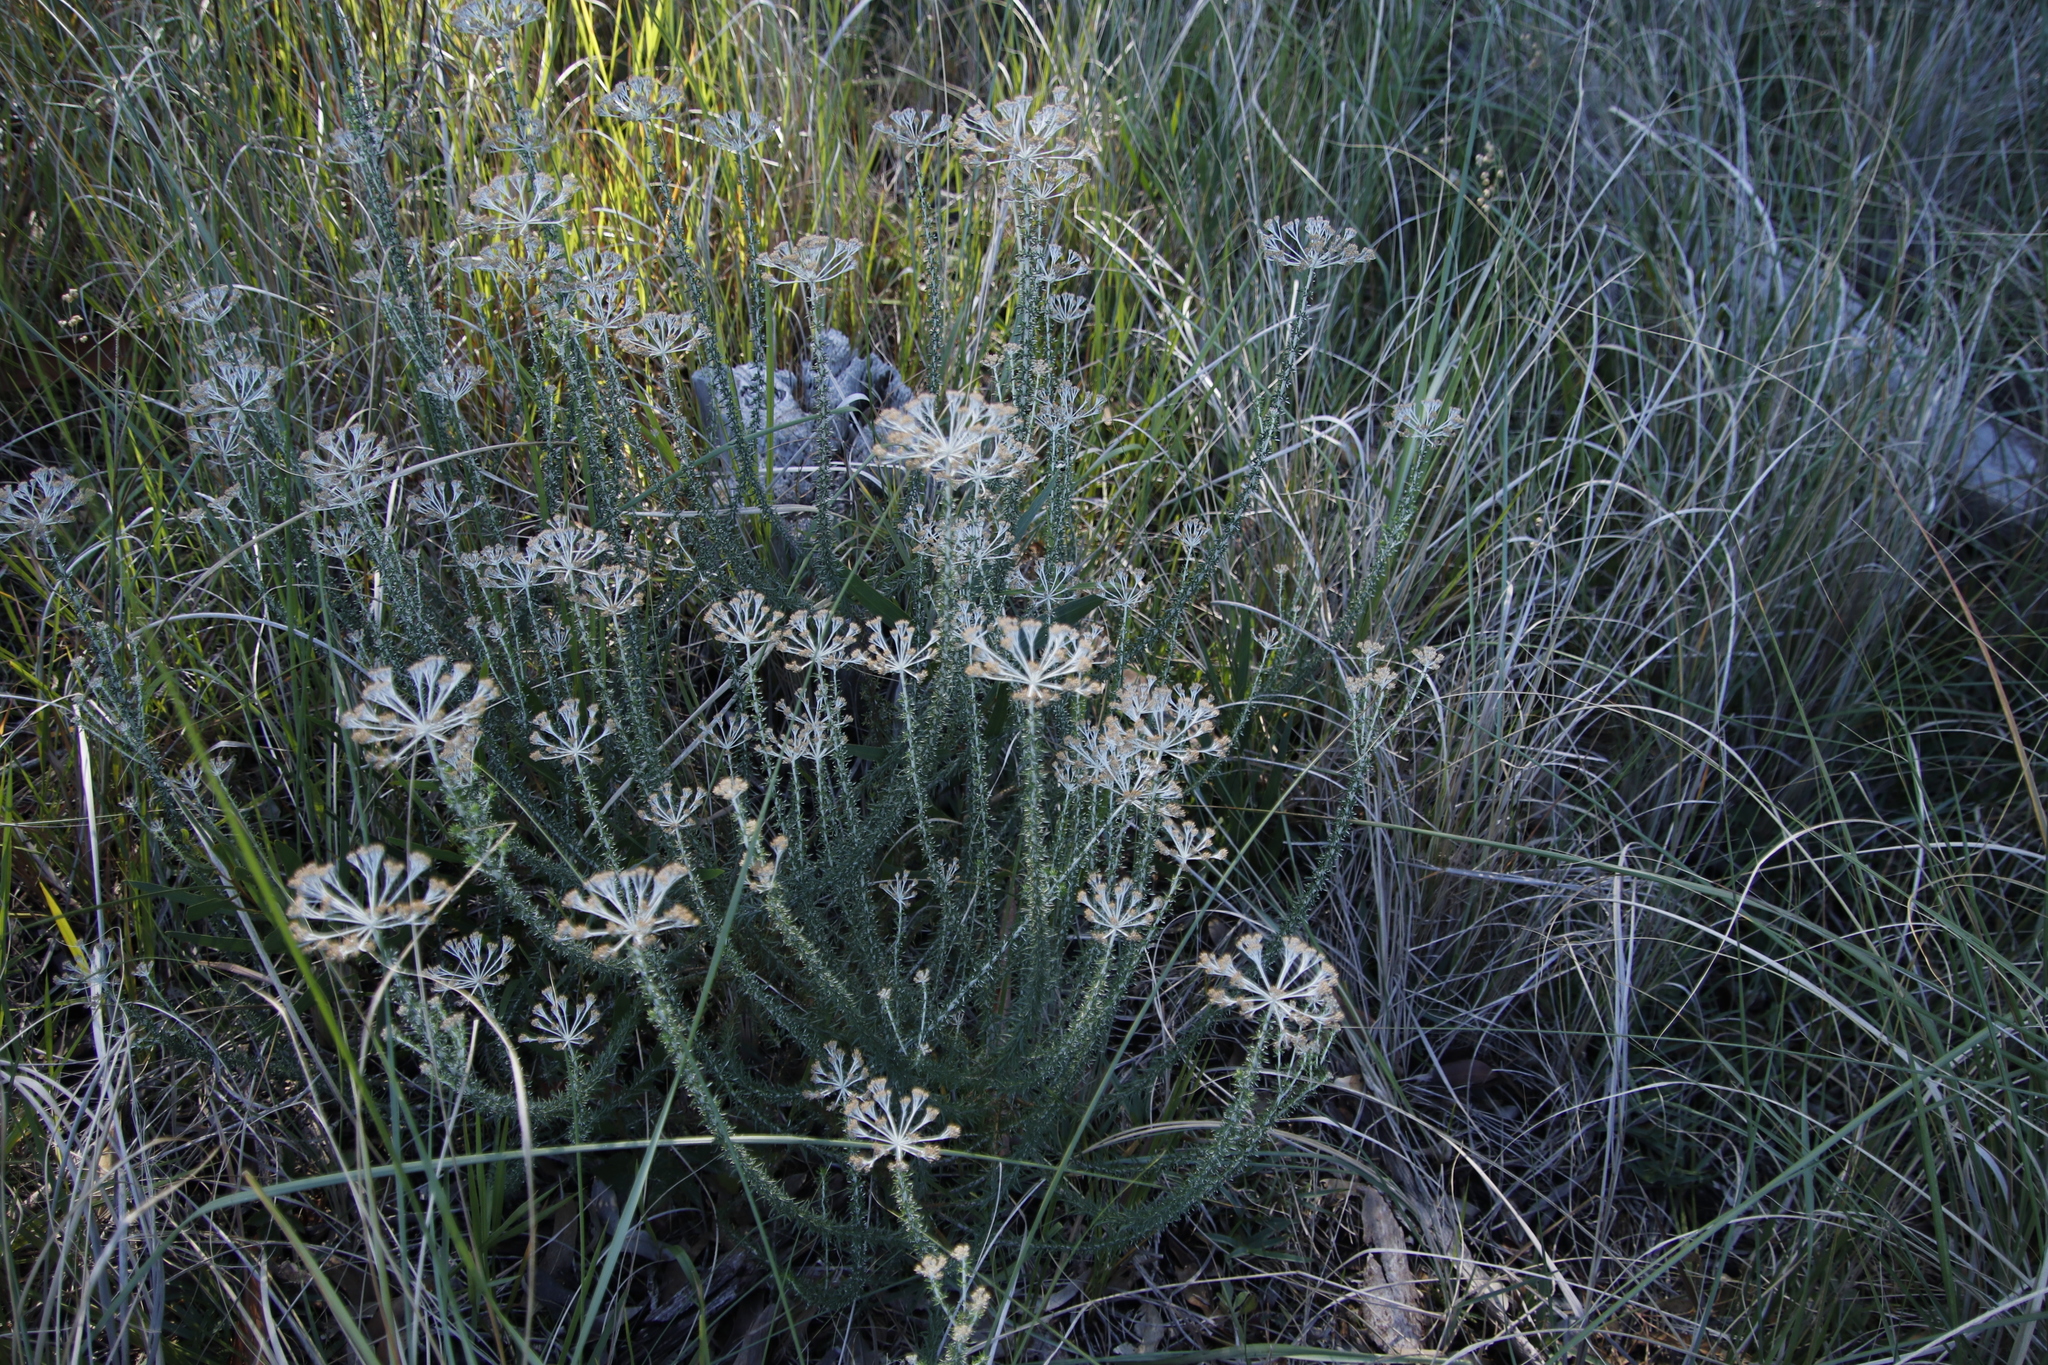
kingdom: Plantae
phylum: Tracheophyta
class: Magnoliopsida
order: Asterales
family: Asteraceae
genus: Metalasia
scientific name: Metalasia densa
